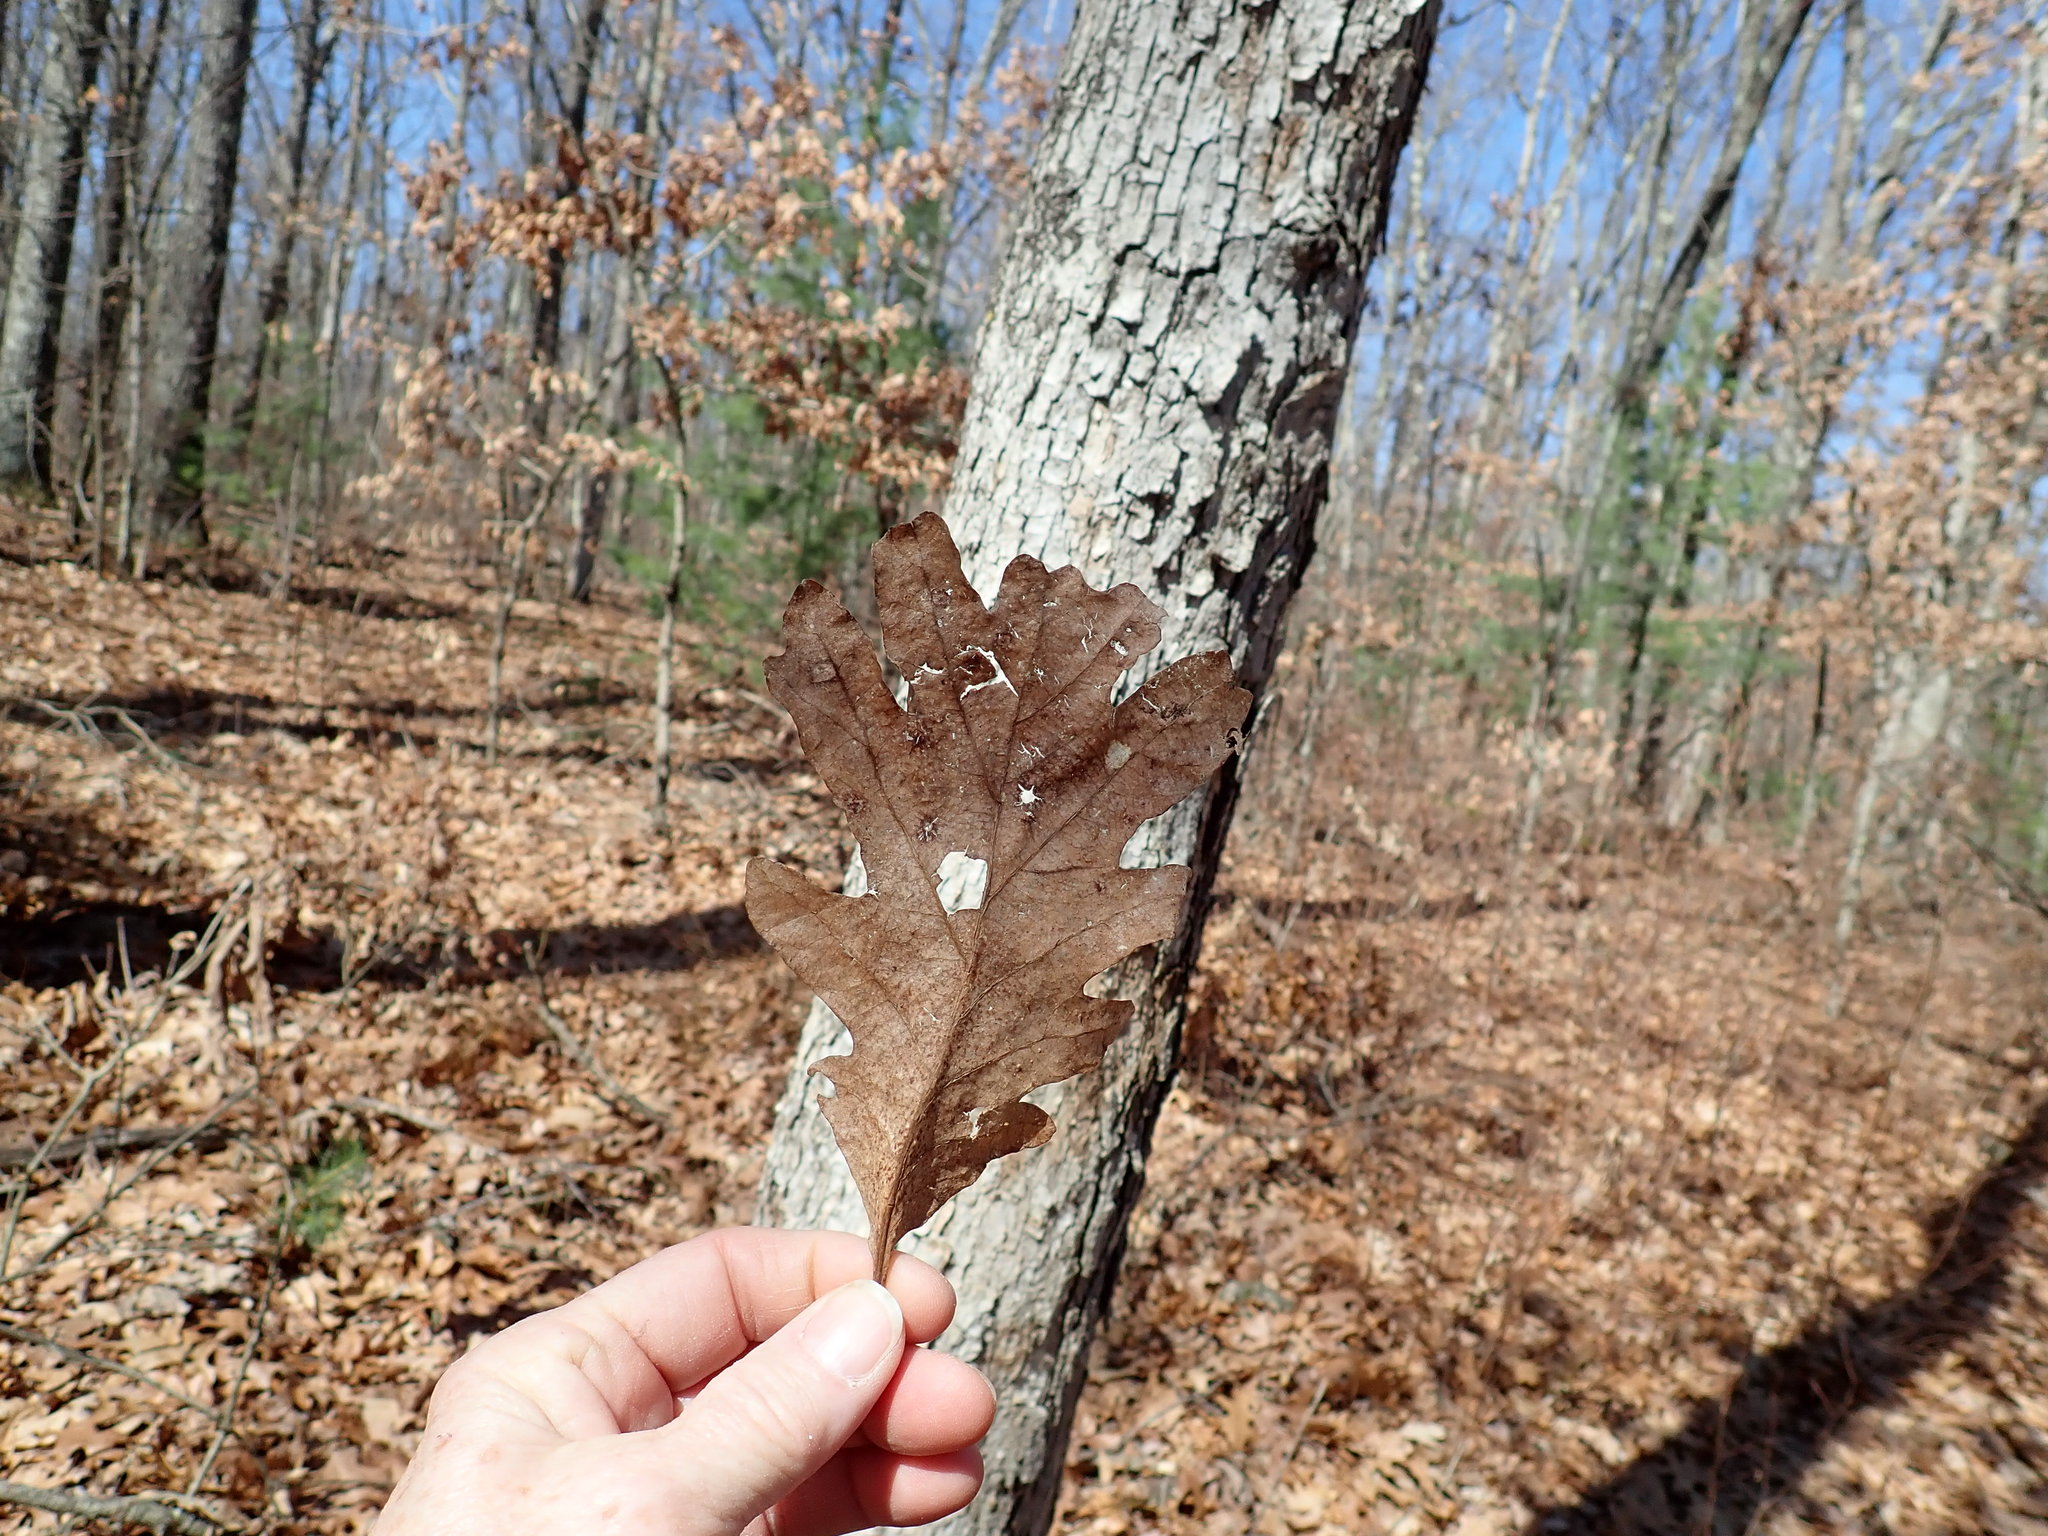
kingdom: Plantae
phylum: Tracheophyta
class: Magnoliopsida
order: Fagales
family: Fagaceae
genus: Quercus
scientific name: Quercus alba
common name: White oak
